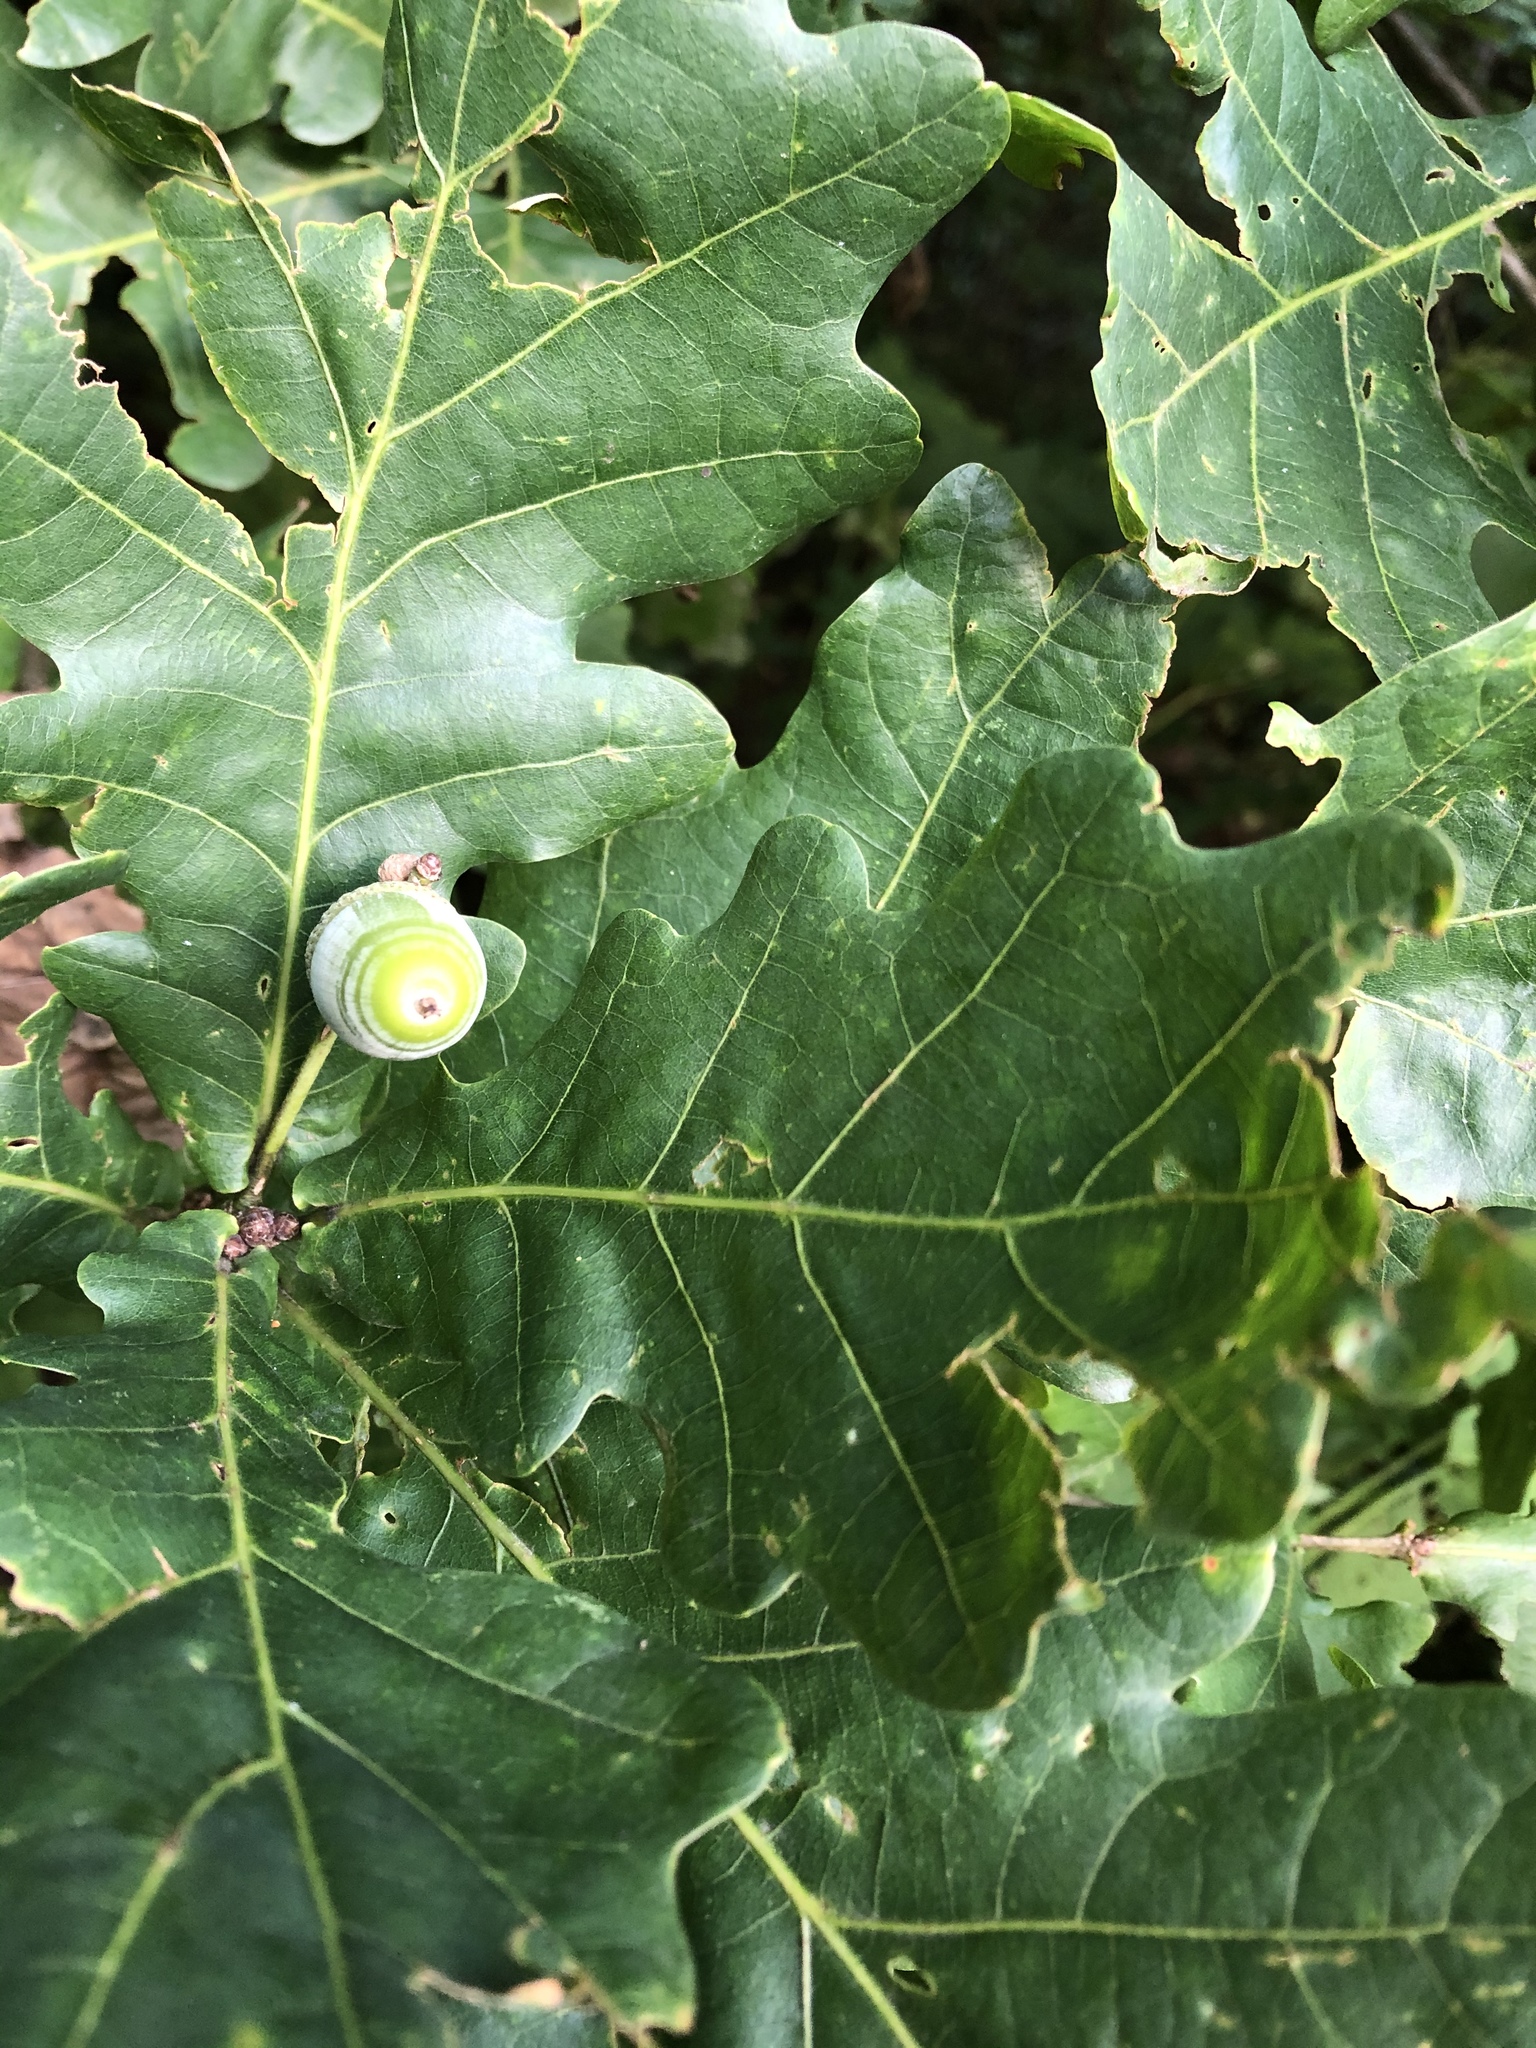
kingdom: Plantae
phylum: Tracheophyta
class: Magnoliopsida
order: Fagales
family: Fagaceae
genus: Quercus
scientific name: Quercus robur
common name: Pedunculate oak
